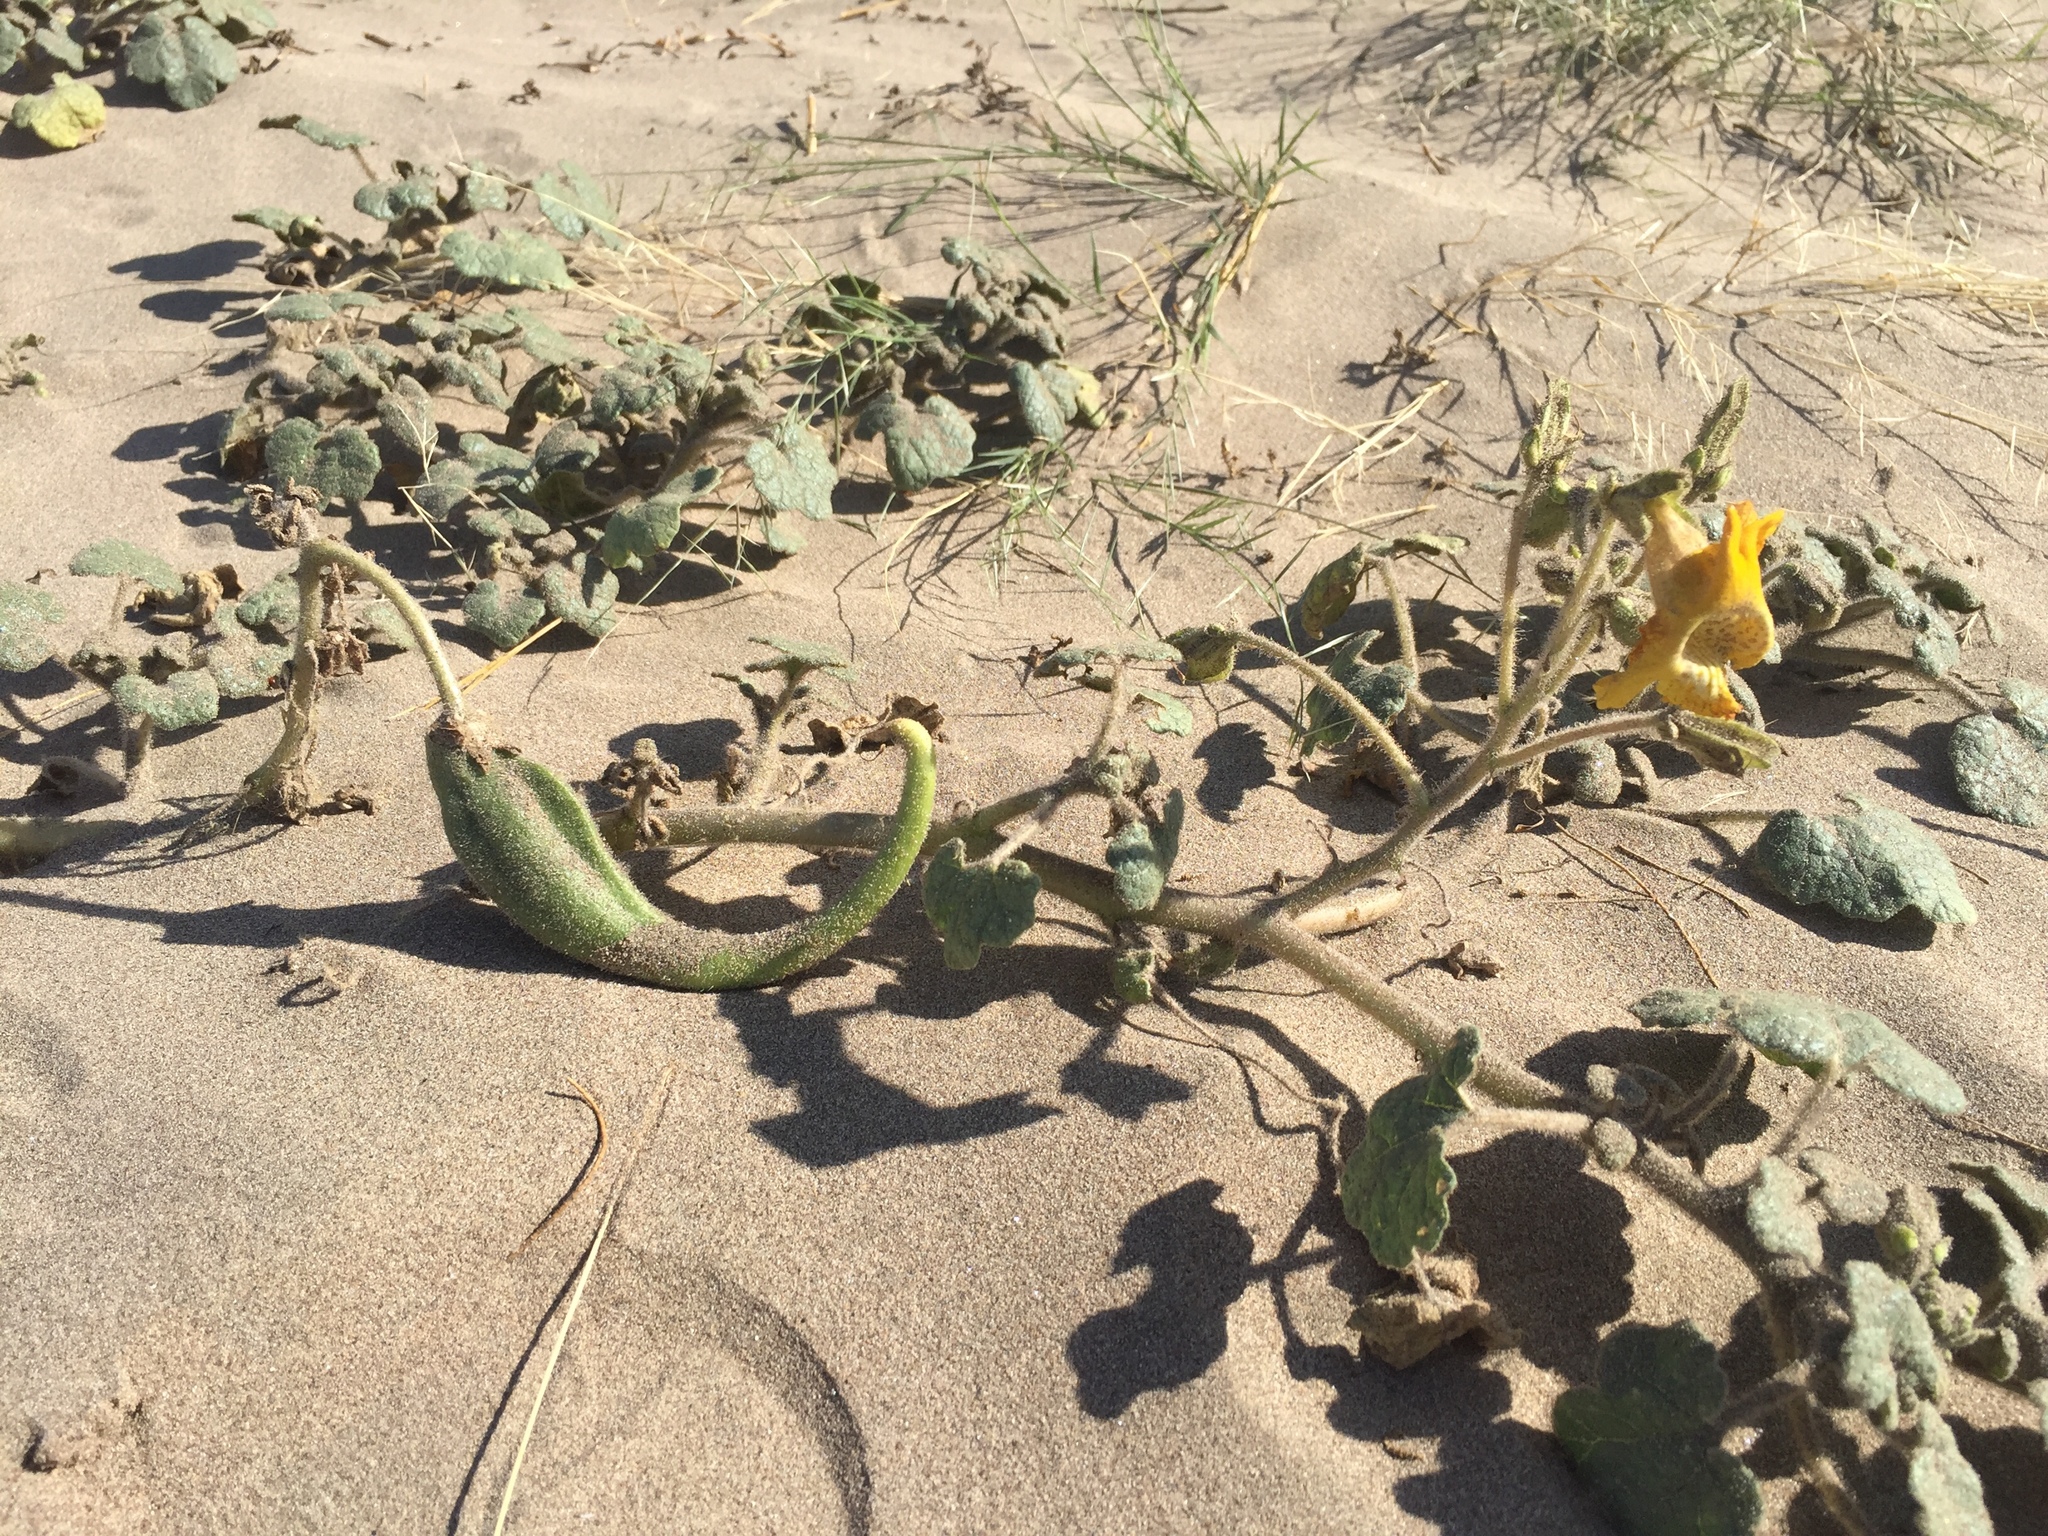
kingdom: Plantae
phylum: Tracheophyta
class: Magnoliopsida
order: Lamiales
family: Martyniaceae
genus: Proboscidea
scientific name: Proboscidea althaeifolia
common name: Desert unicorn-plant
